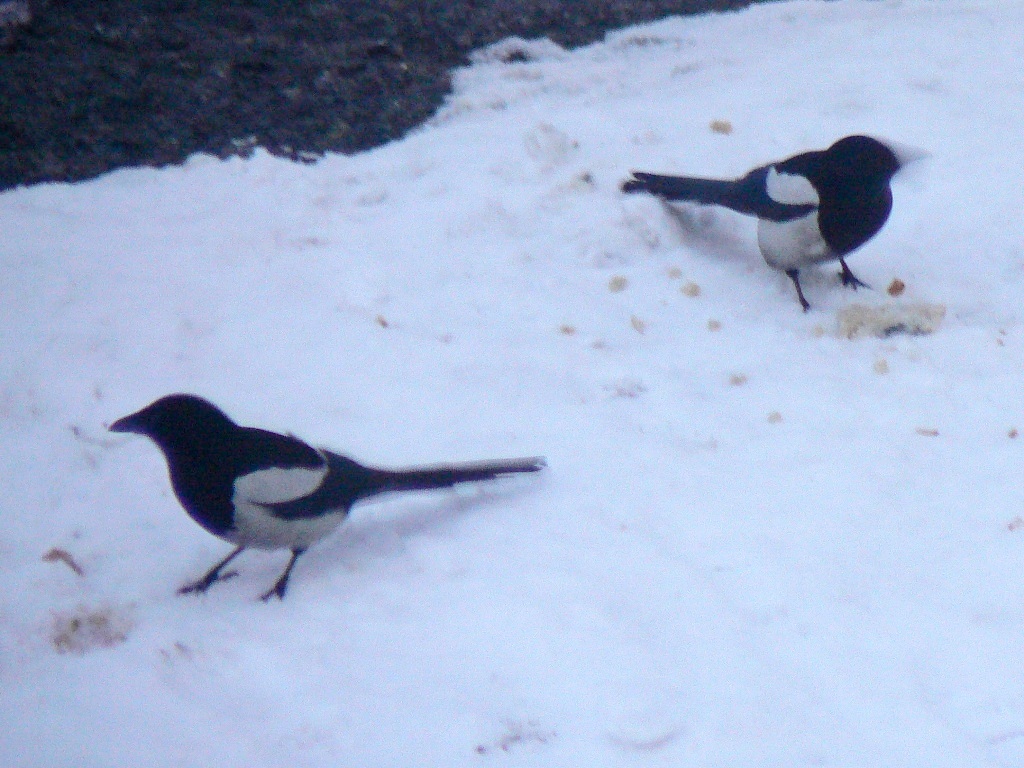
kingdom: Animalia
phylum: Chordata
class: Aves
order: Passeriformes
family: Corvidae
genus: Pica
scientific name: Pica pica
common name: Eurasian magpie
